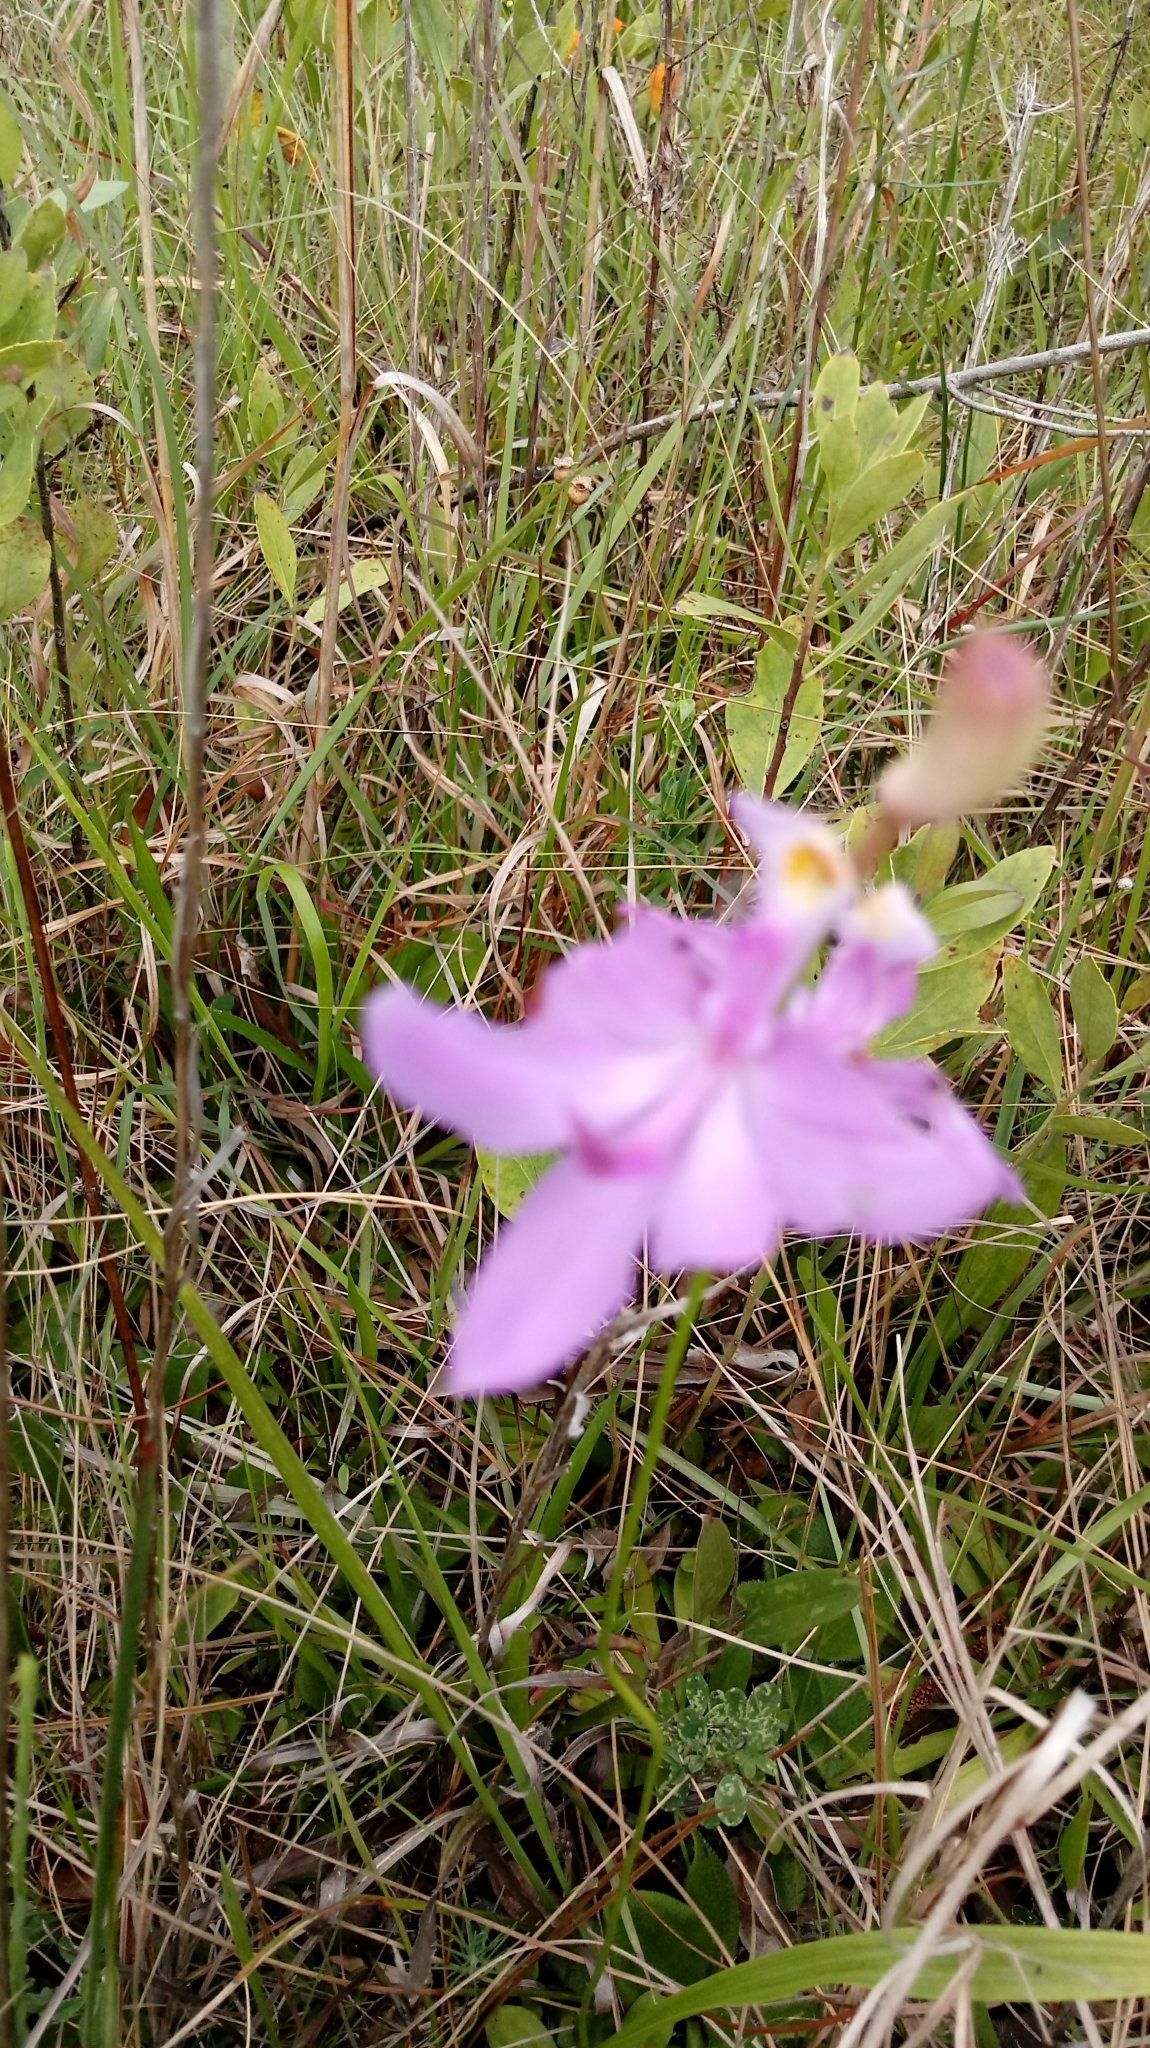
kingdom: Plantae
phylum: Tracheophyta
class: Liliopsida
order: Asparagales
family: Orchidaceae
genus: Calopogon
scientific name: Calopogon tuberosus
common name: Grass-pink
